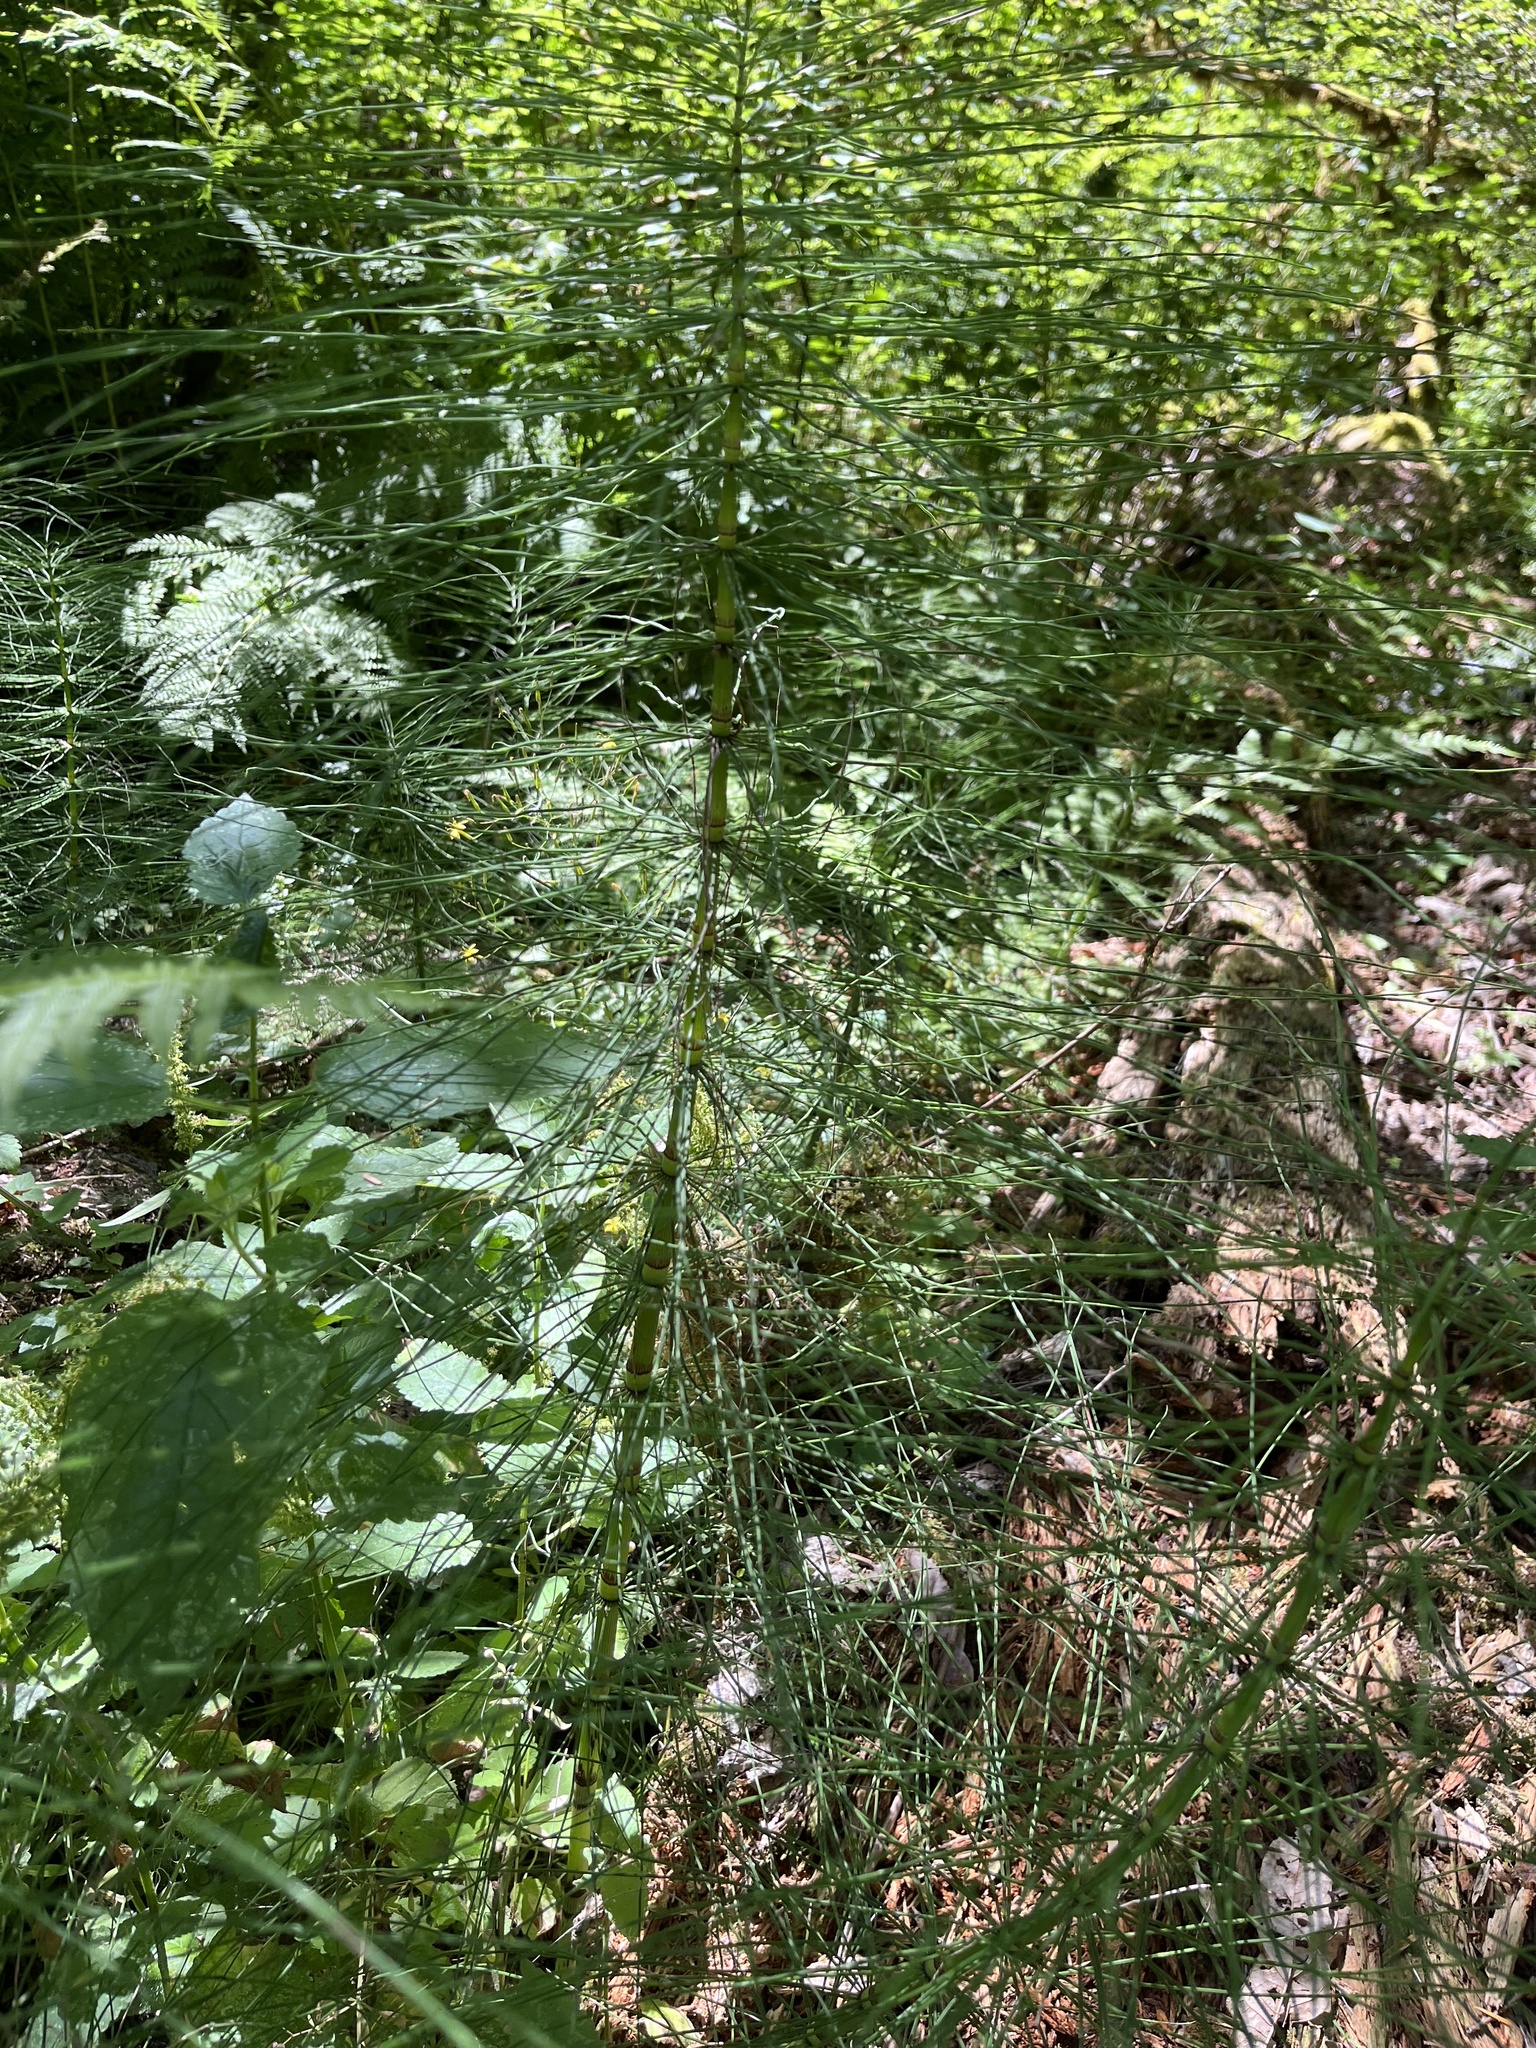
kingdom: Plantae
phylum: Tracheophyta
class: Polypodiopsida
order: Equisetales
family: Equisetaceae
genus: Equisetum
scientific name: Equisetum telmateia
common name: Great horsetail
